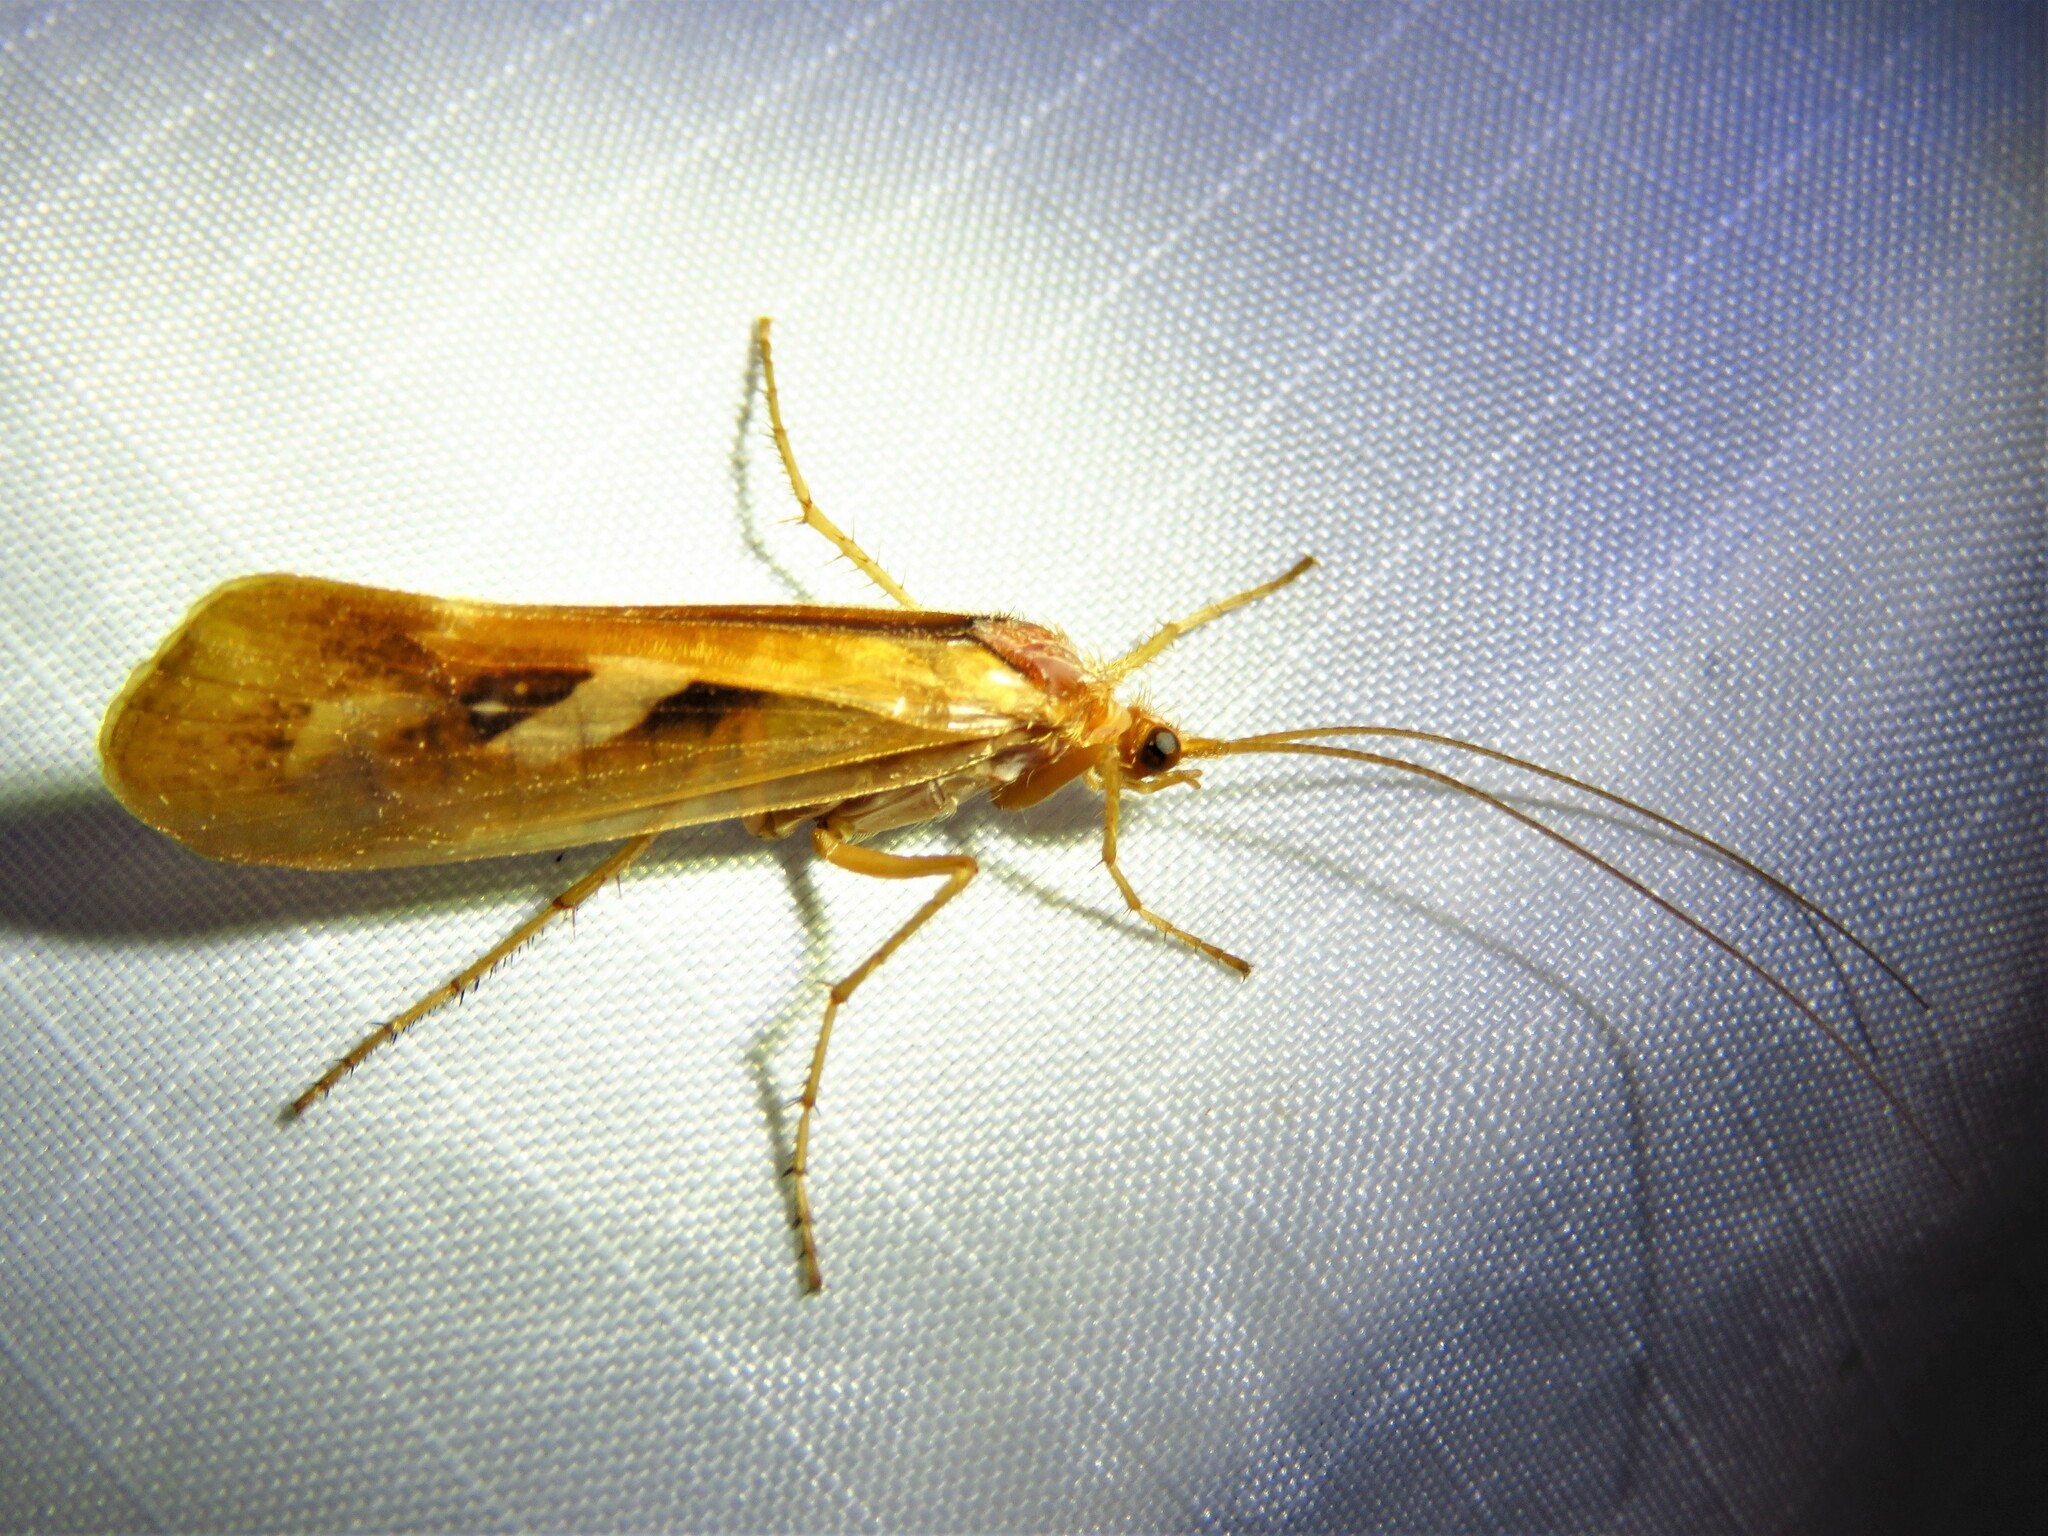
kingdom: Animalia
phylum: Arthropoda
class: Insecta
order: Trichoptera
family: Limnephilidae
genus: Limnephilus
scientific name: Limnephilus rhombicus
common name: Diamond northern caddisfly
